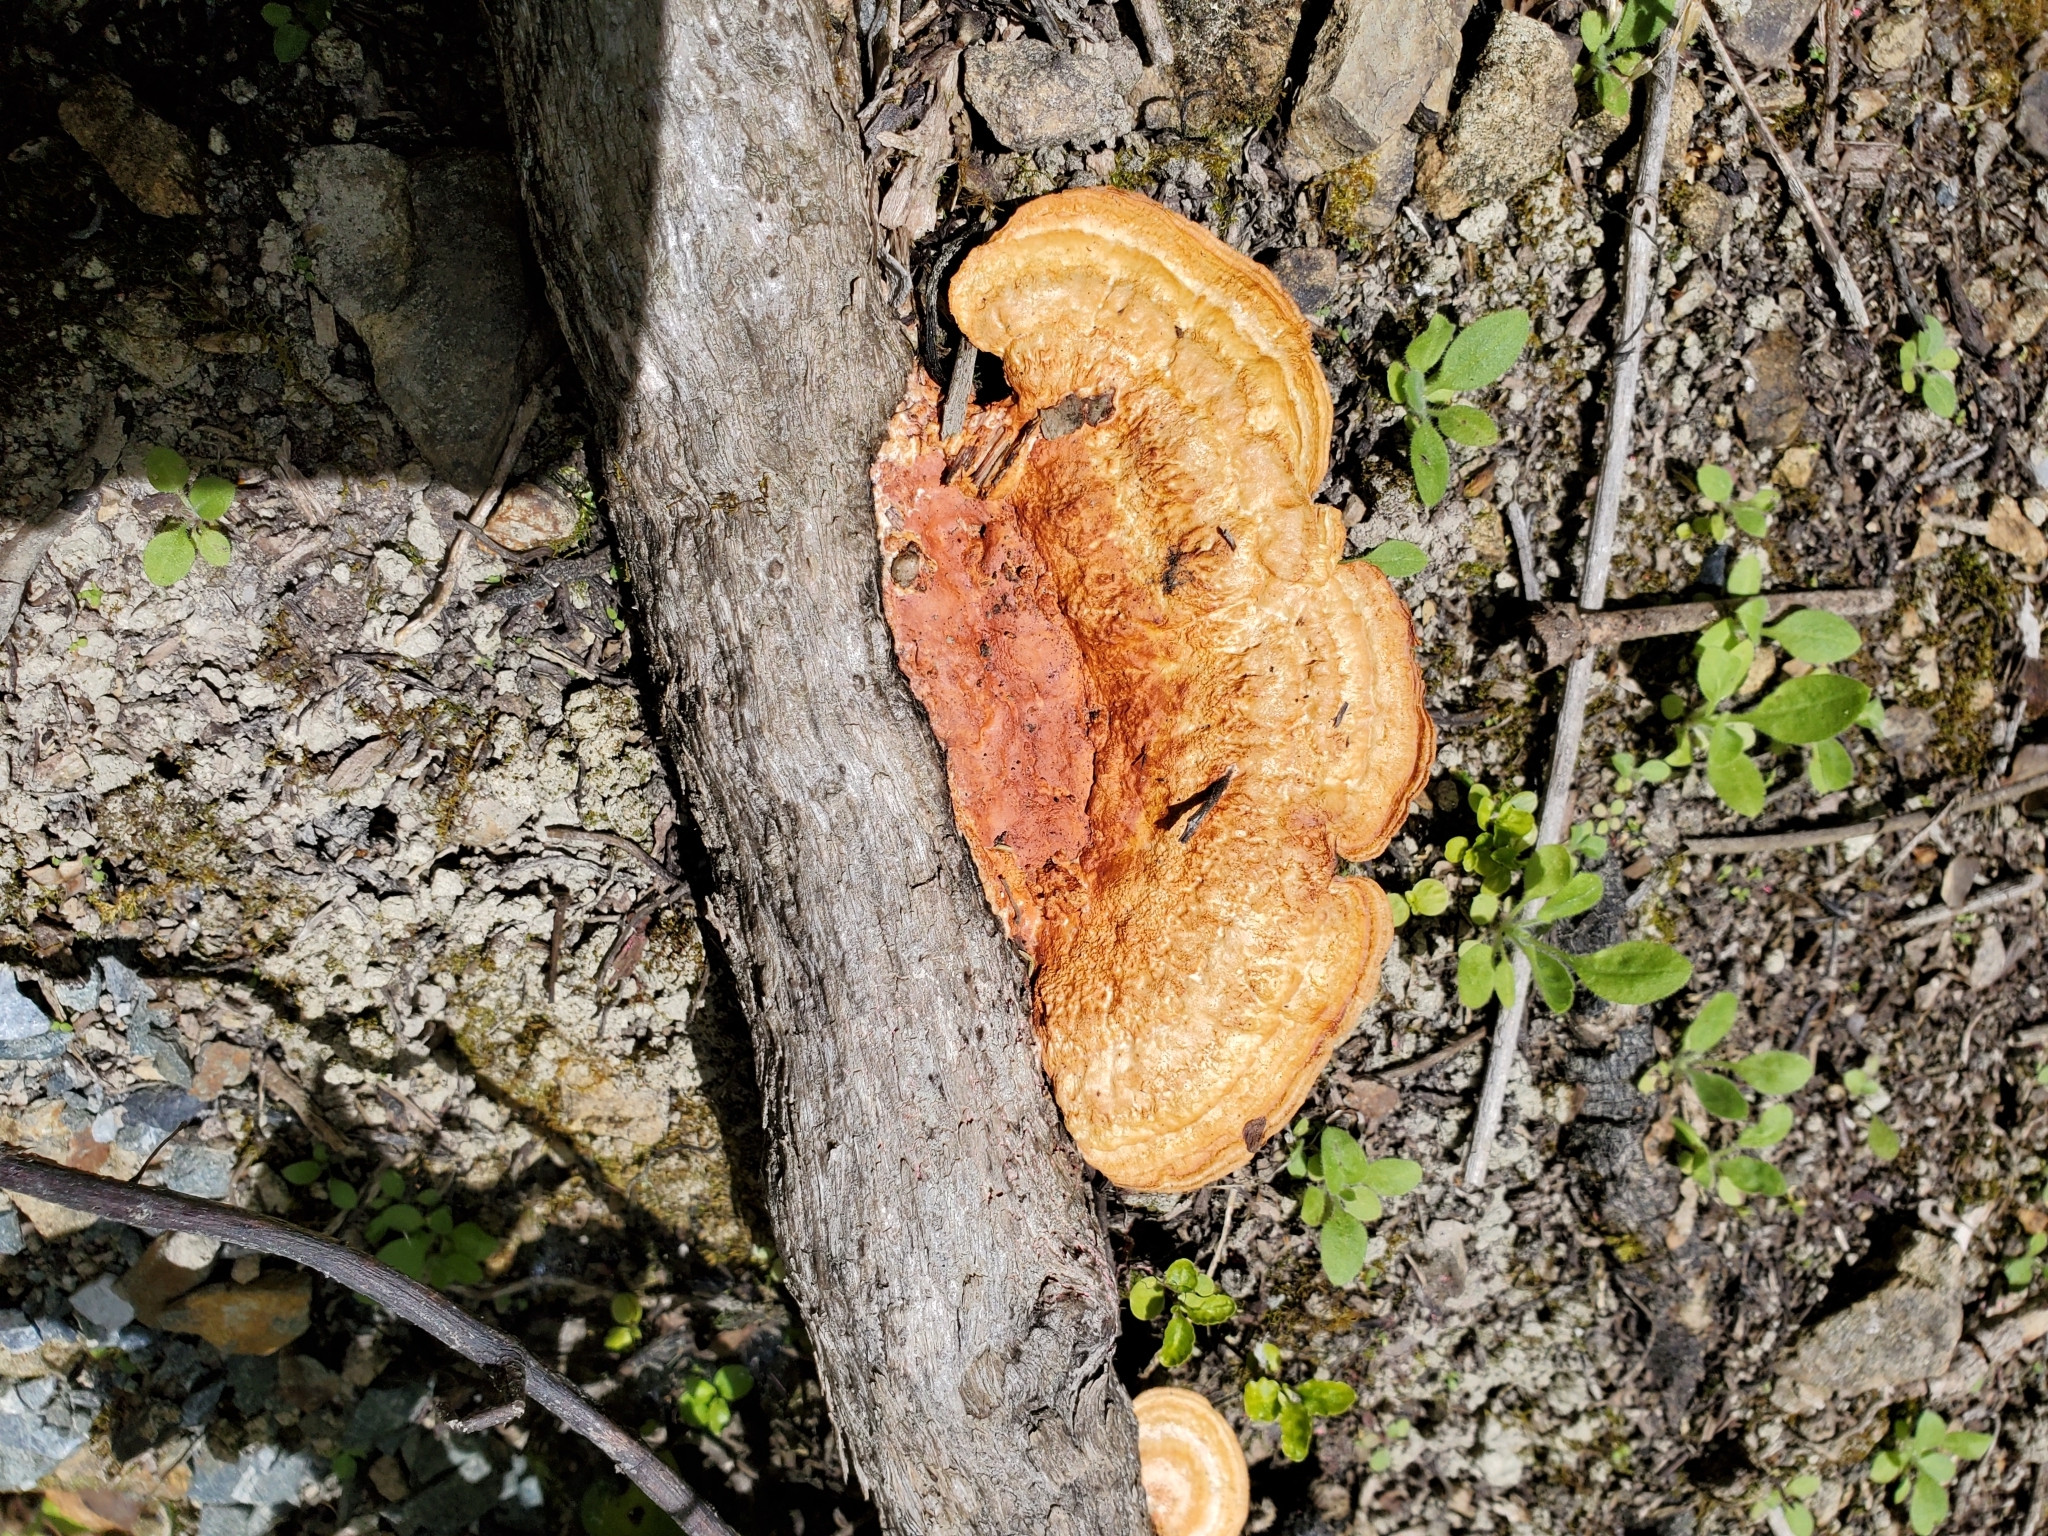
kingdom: Fungi
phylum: Basidiomycota
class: Agaricomycetes
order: Polyporales
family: Polyporaceae
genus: Trametes
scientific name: Trametes coccinea
